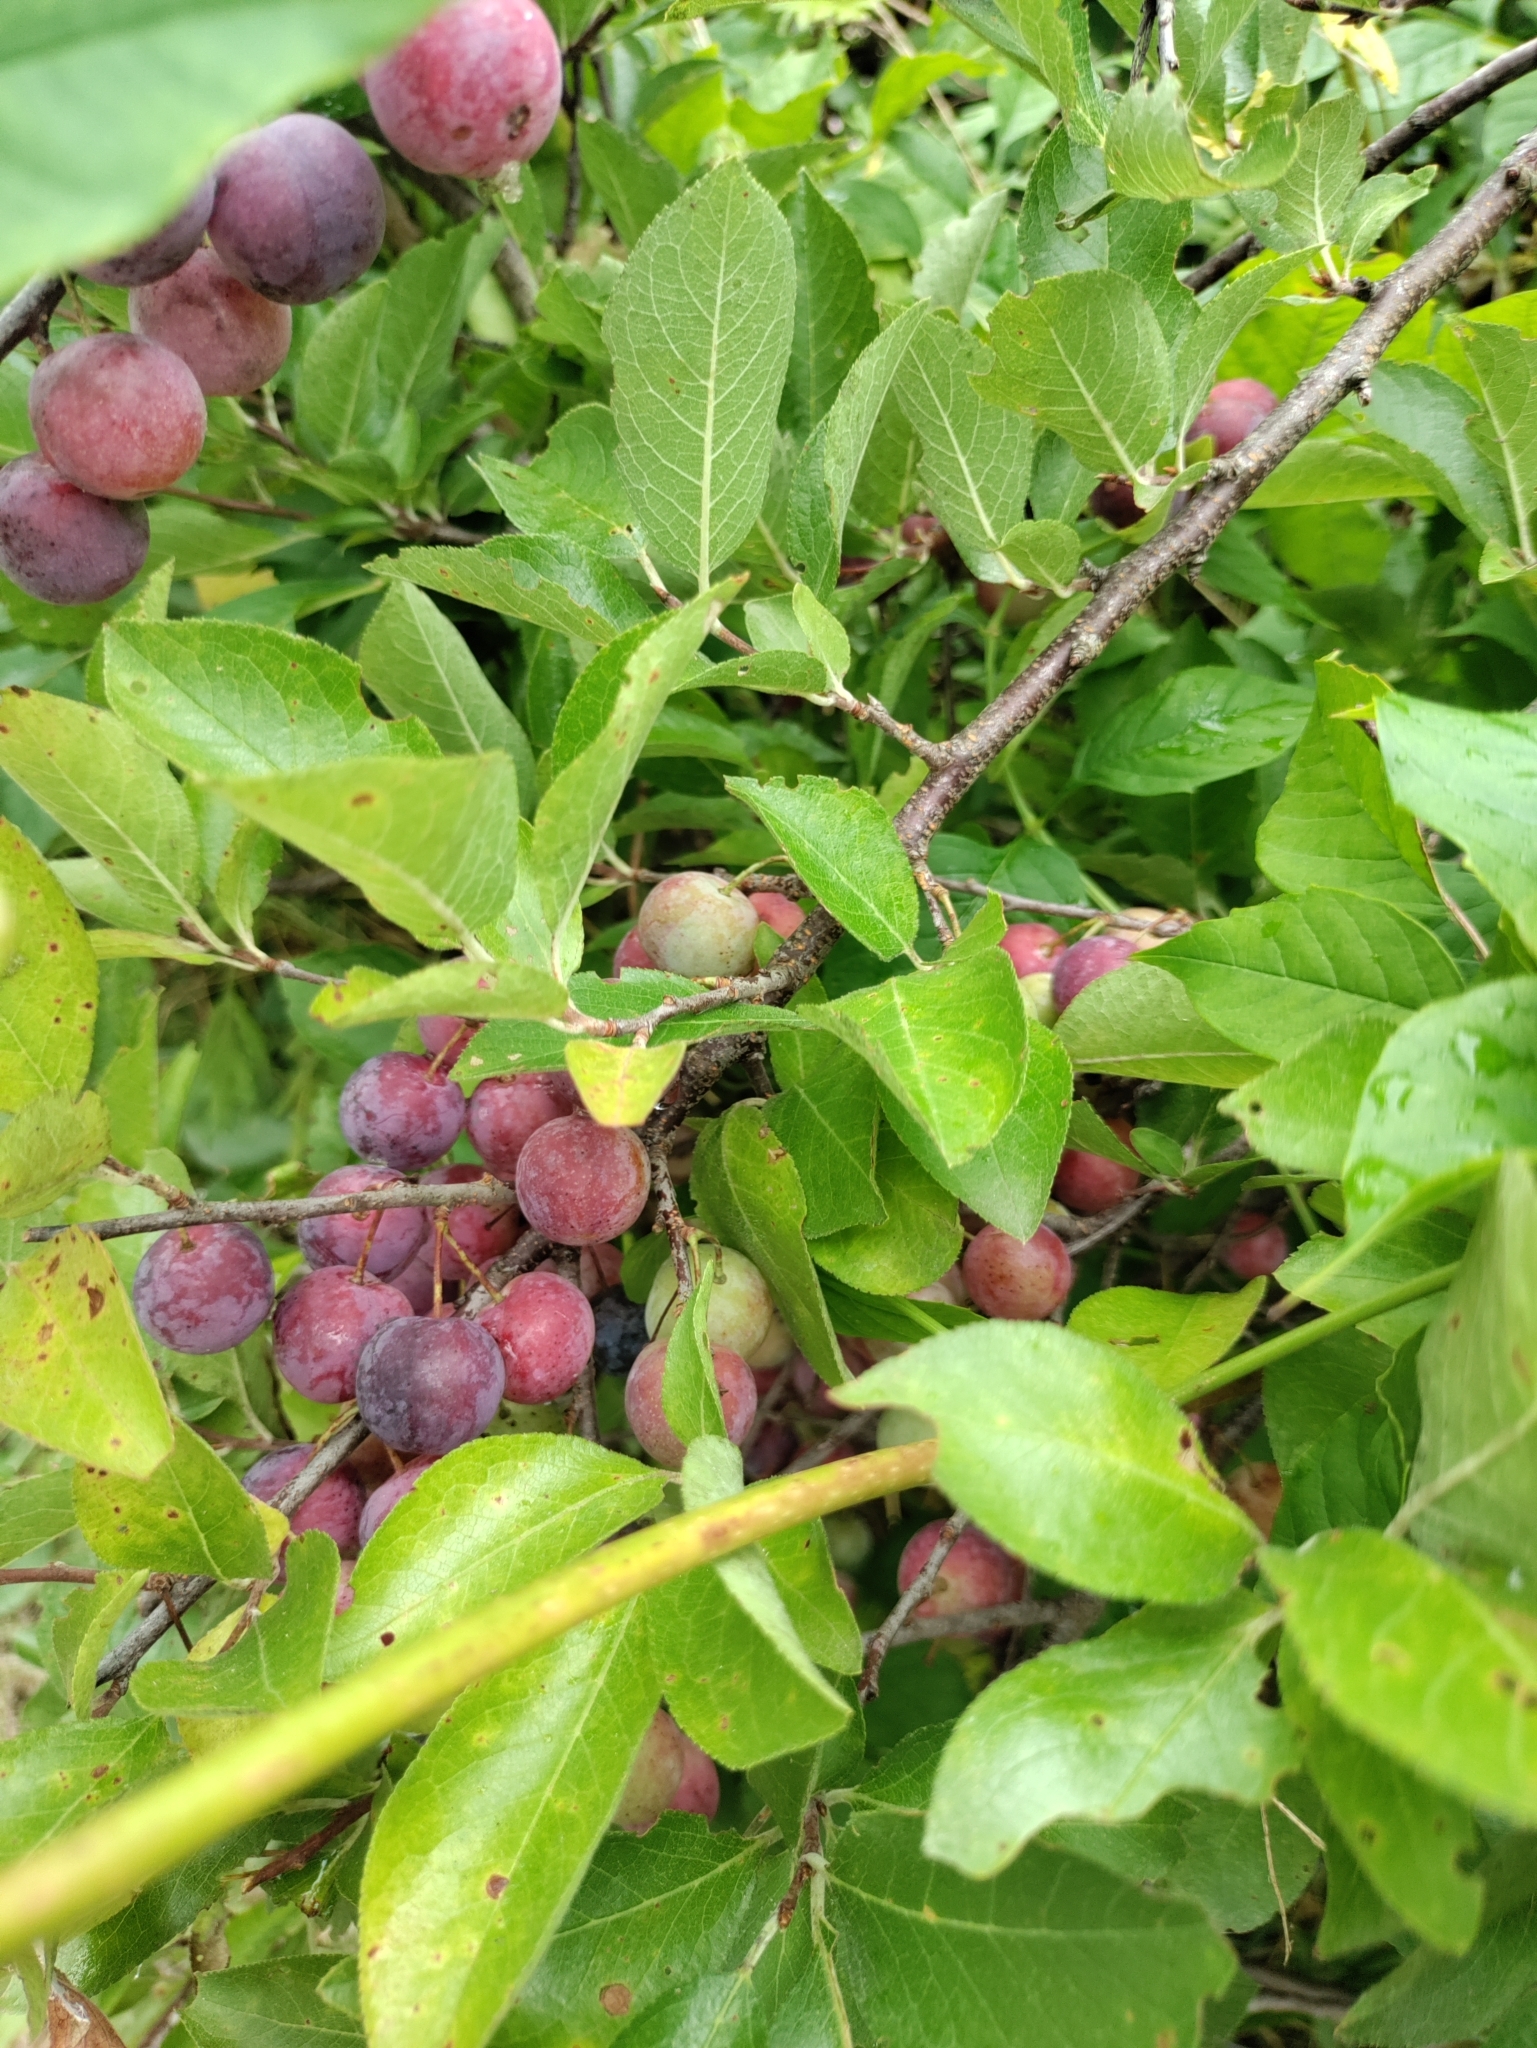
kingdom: Plantae
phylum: Tracheophyta
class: Magnoliopsida
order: Rosales
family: Rosaceae
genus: Prunus
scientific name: Prunus maritima
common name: Beach plum
